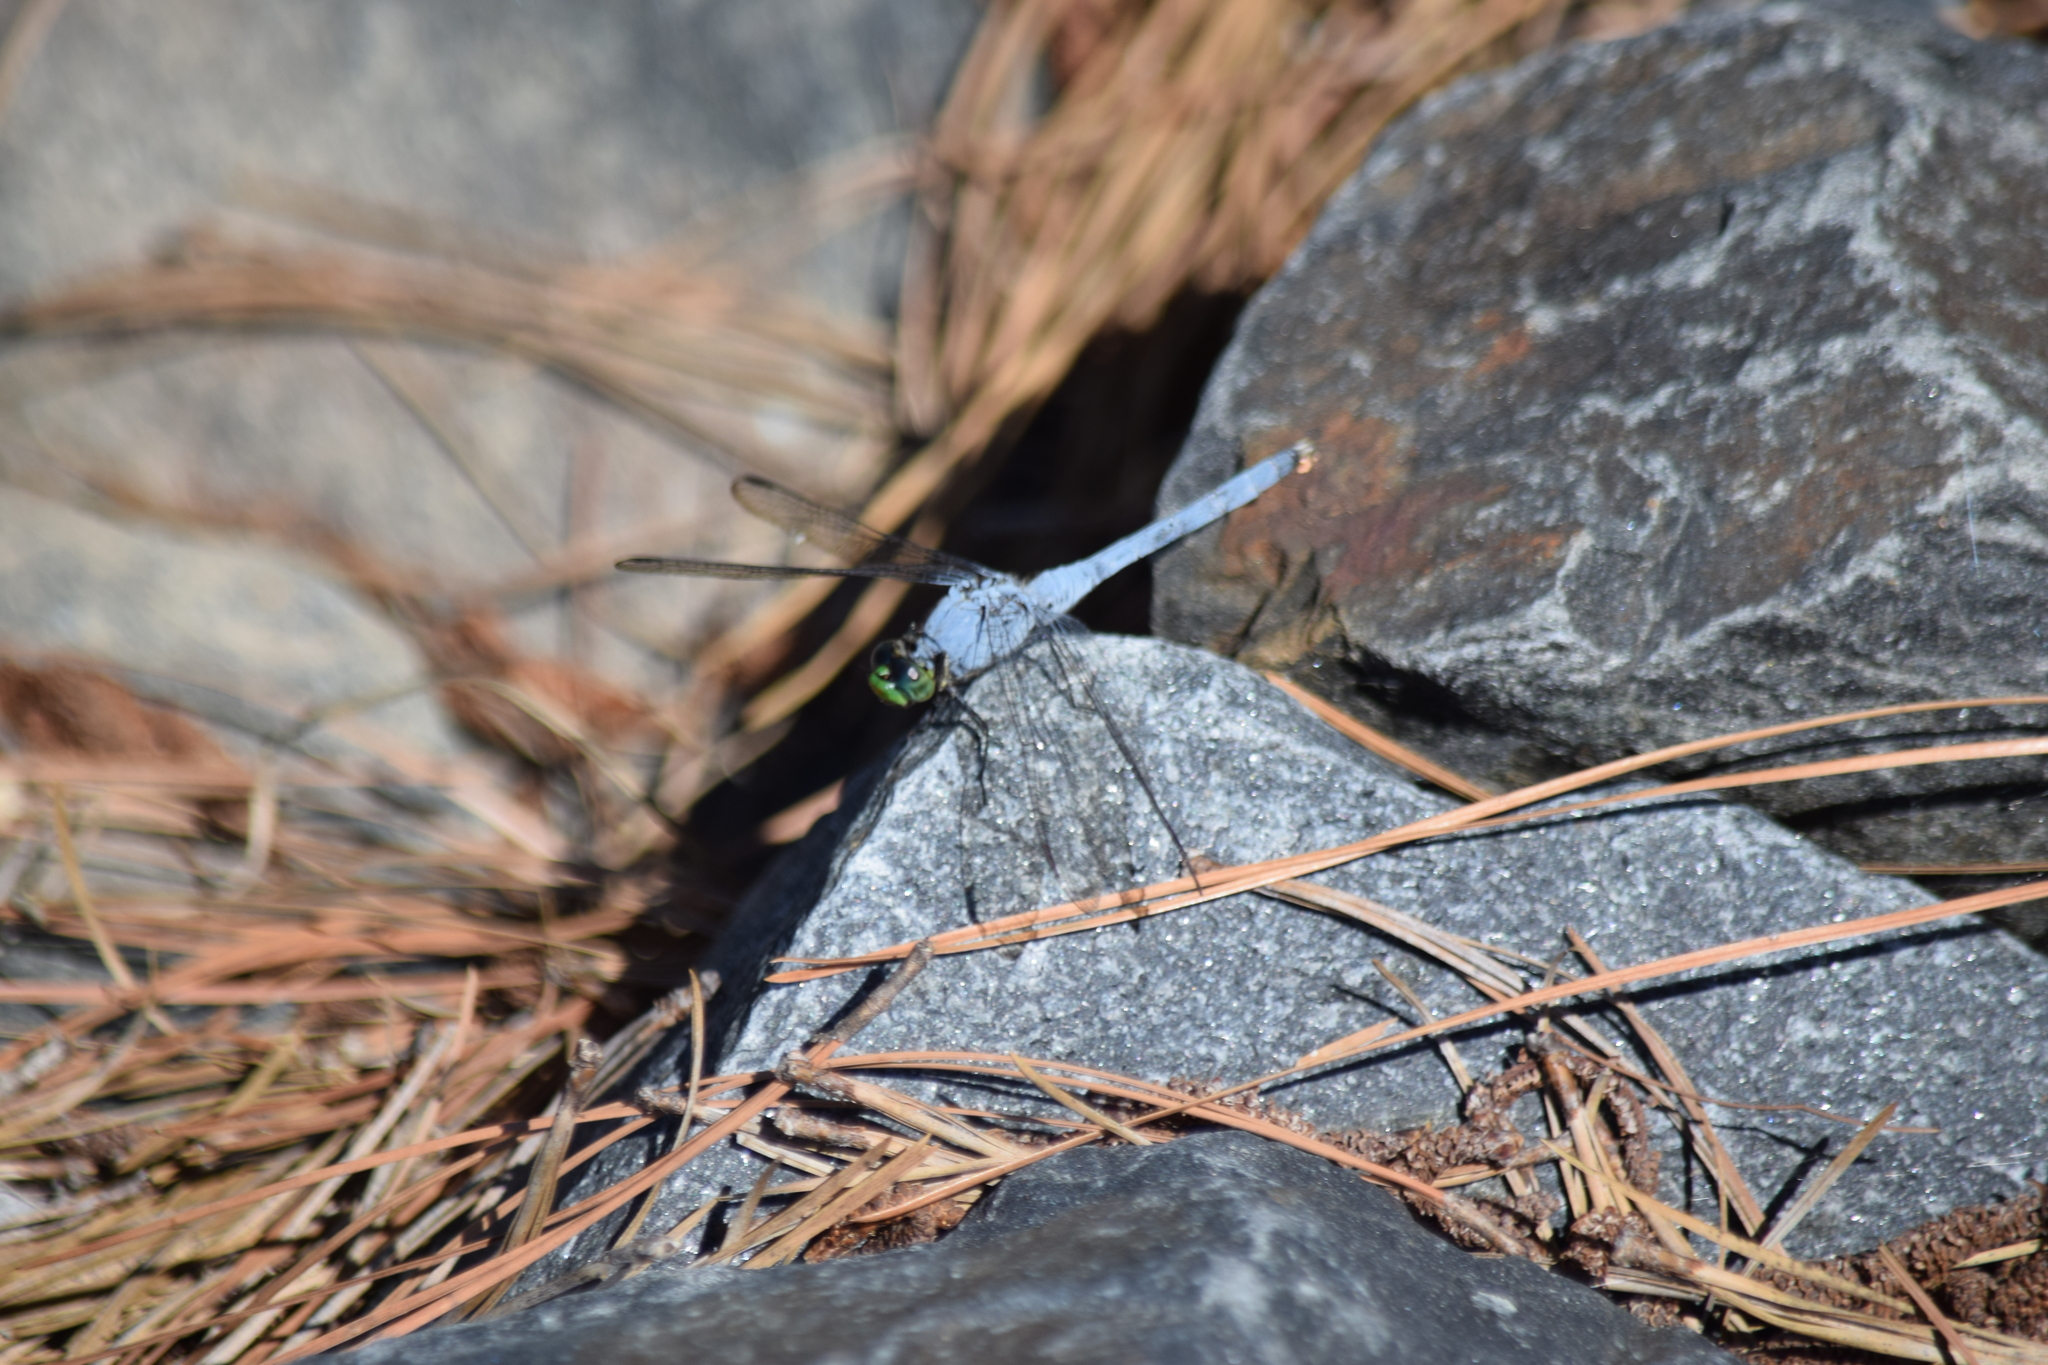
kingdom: Animalia
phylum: Arthropoda
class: Insecta
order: Odonata
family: Libellulidae
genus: Erythemis
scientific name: Erythemis simplicicollis
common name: Eastern pondhawk
